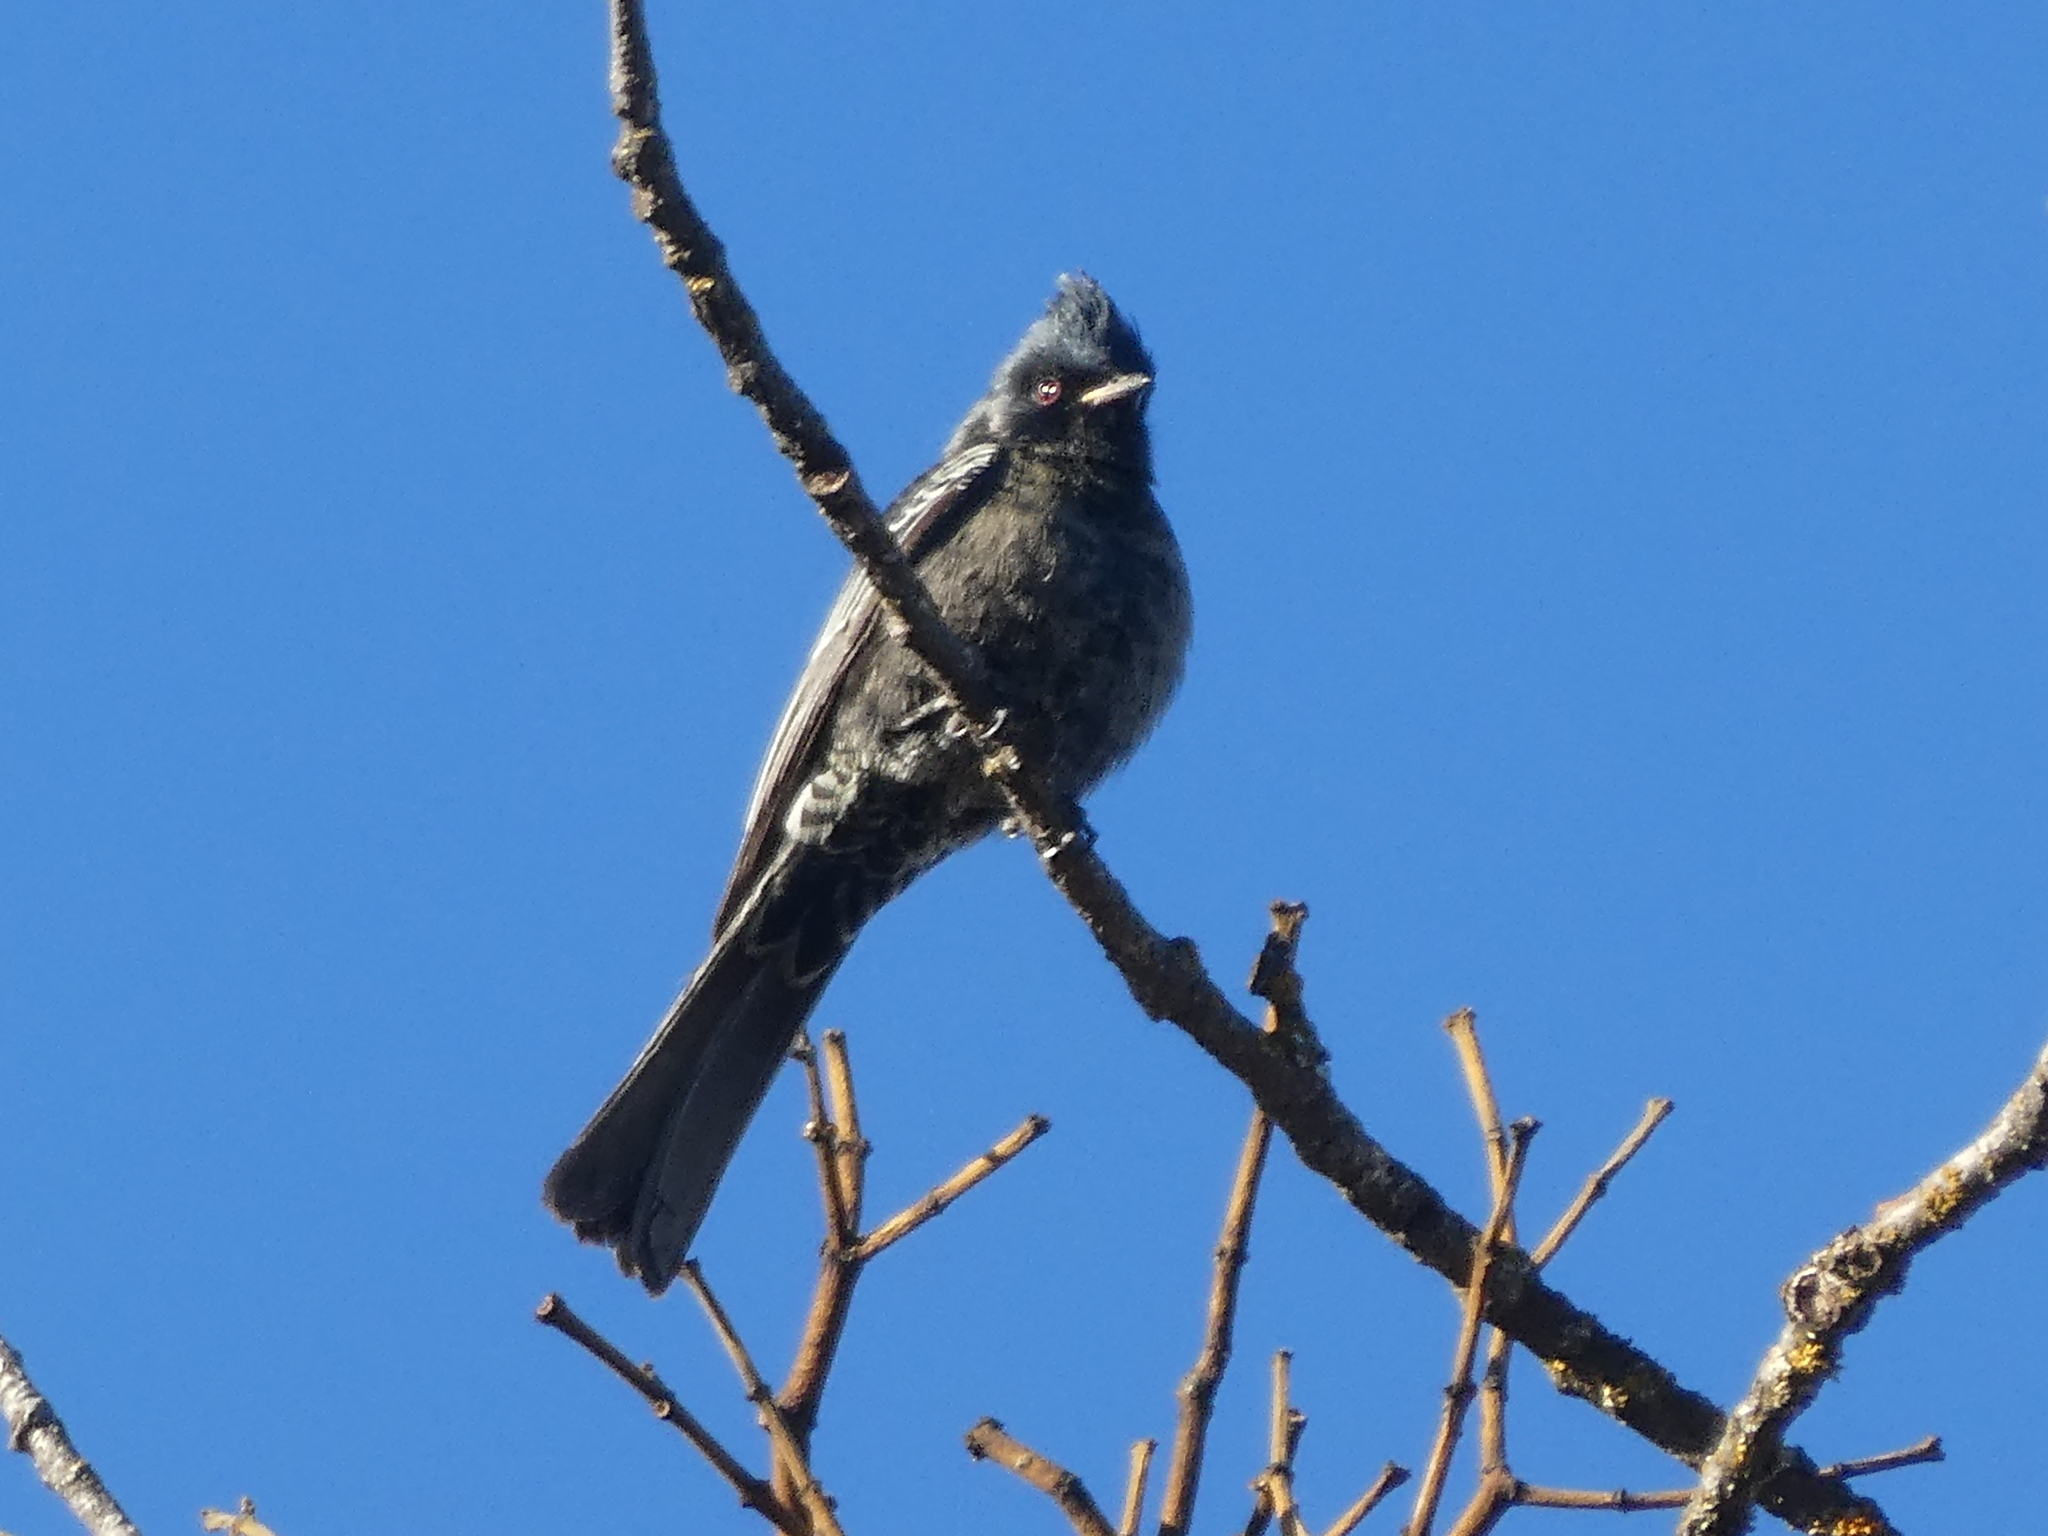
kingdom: Animalia
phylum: Chordata
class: Aves
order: Passeriformes
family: Ptilogonatidae
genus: Phainopepla
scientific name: Phainopepla nitens
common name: Phainopepla
